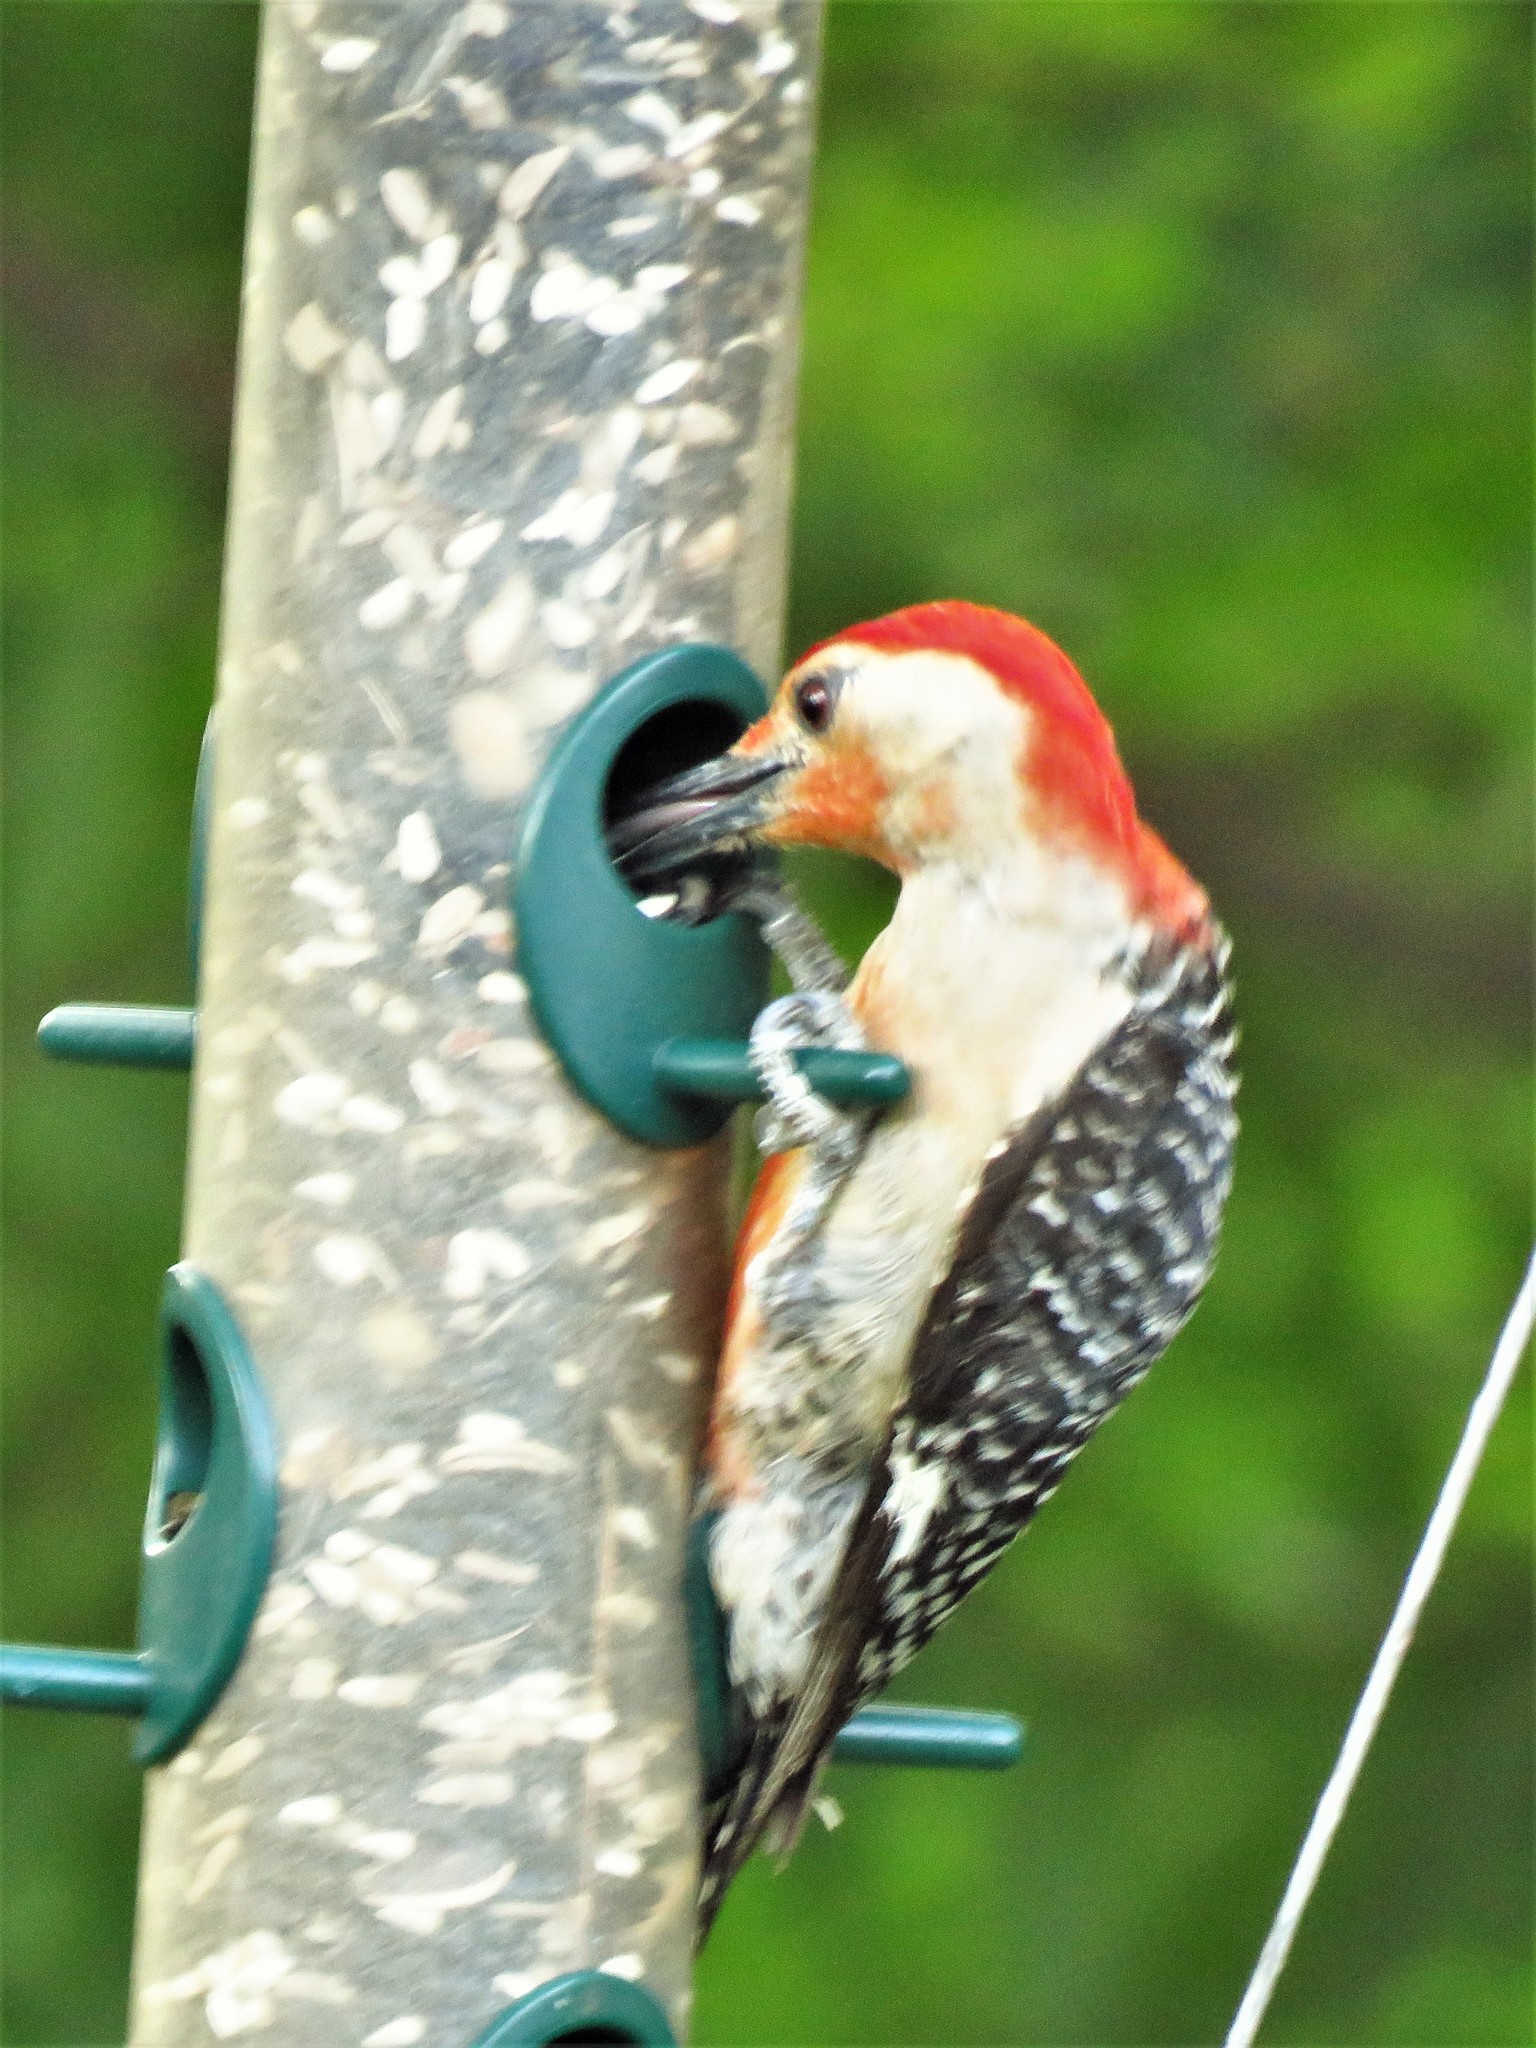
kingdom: Animalia
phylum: Chordata
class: Aves
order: Piciformes
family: Picidae
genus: Melanerpes
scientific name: Melanerpes carolinus
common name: Red-bellied woodpecker
